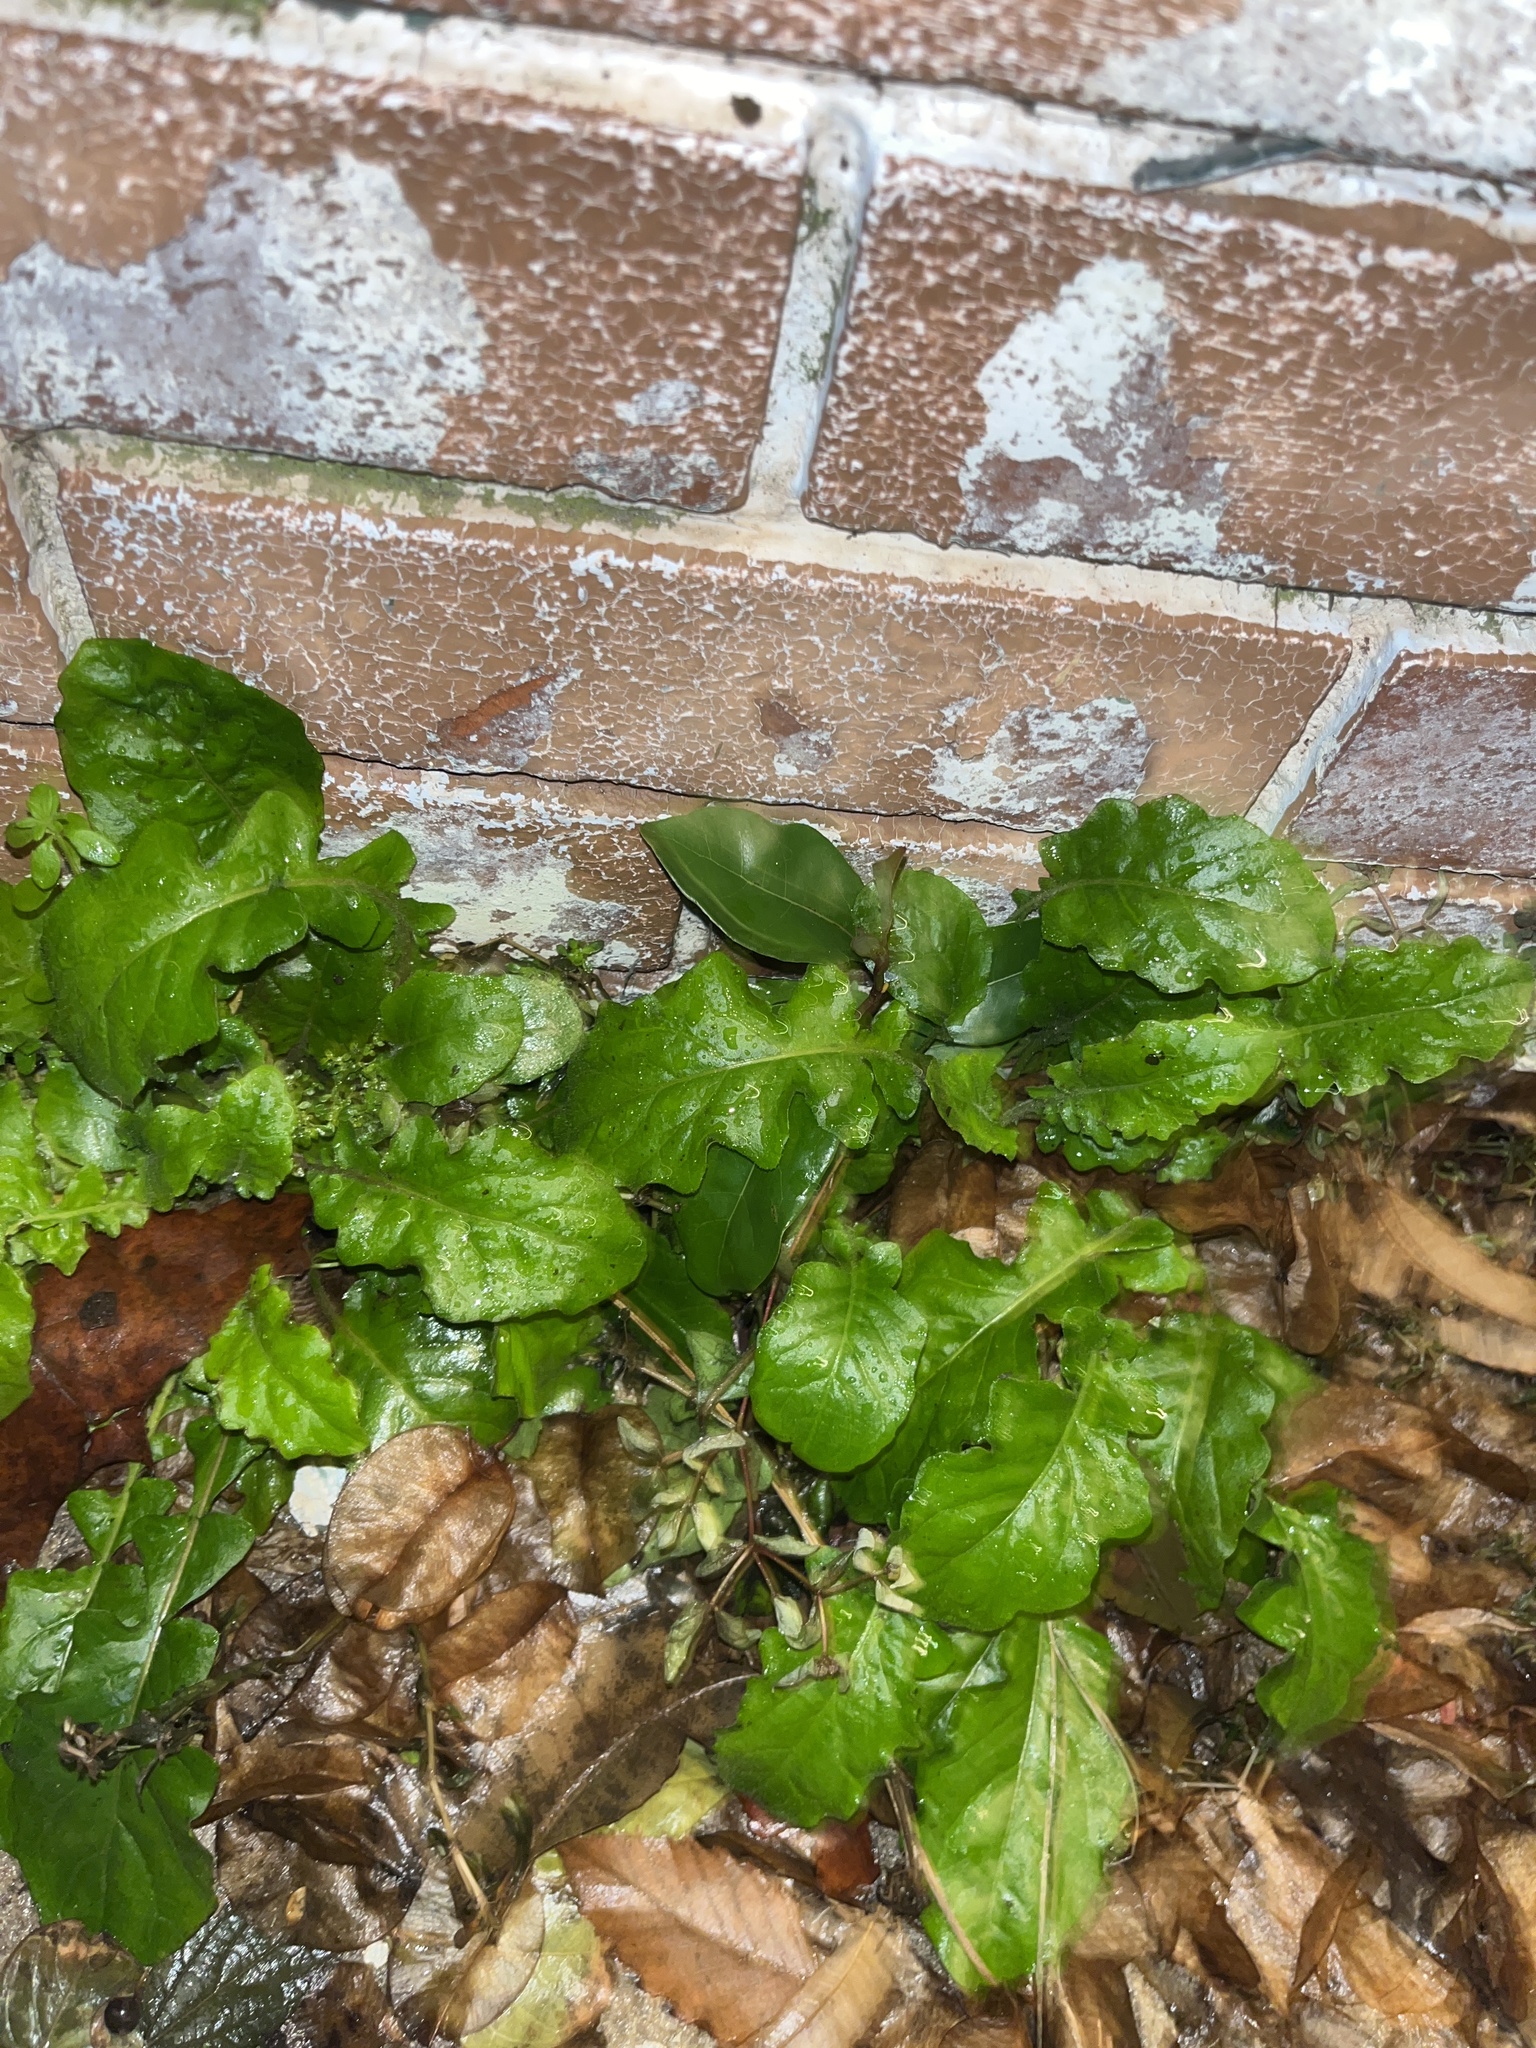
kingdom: Plantae
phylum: Tracheophyta
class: Magnoliopsida
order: Asterales
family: Asteraceae
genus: Youngia
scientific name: Youngia japonica
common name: Oriental false hawksbeard
